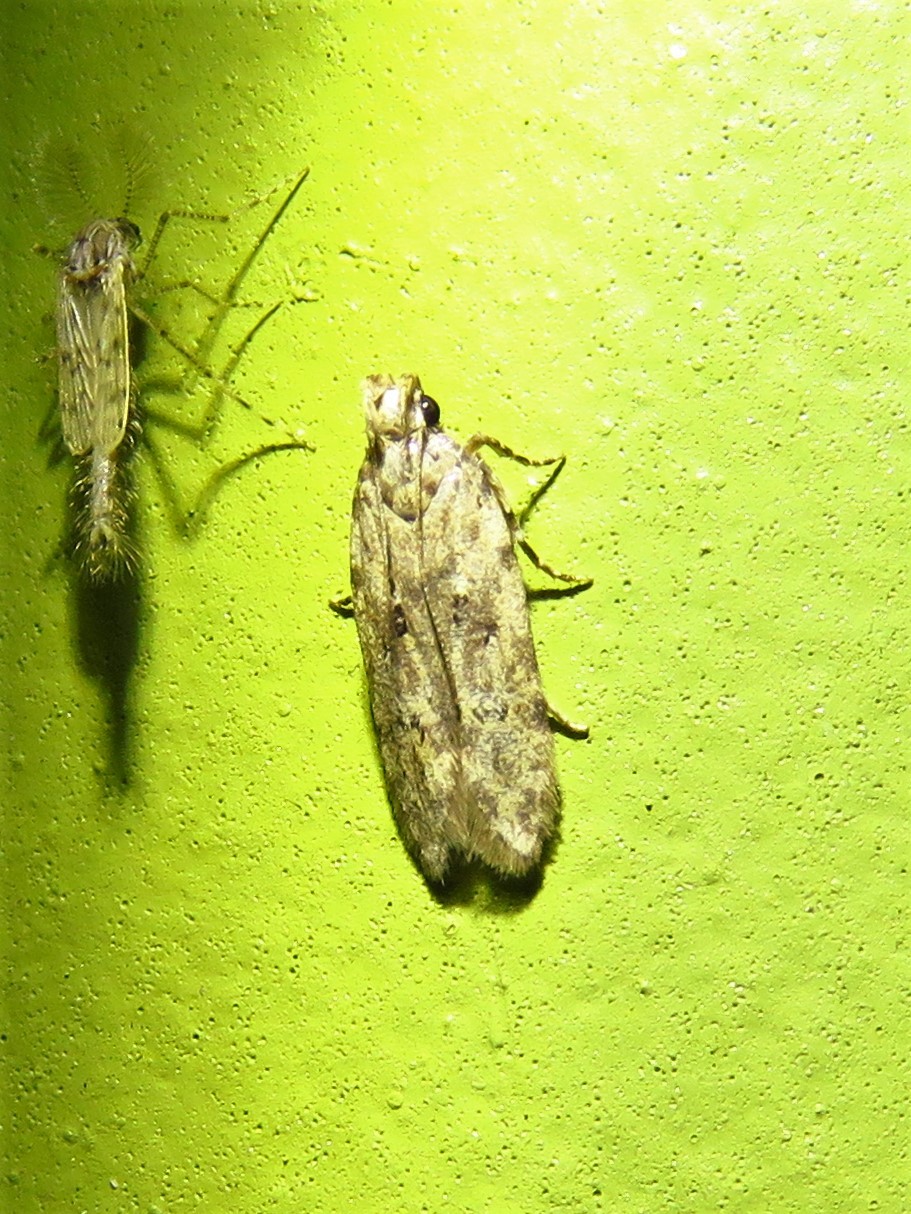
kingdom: Animalia
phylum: Arthropoda
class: Insecta
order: Lepidoptera
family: Gelechiidae
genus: Hypatima
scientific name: Hypatima zesticopa
